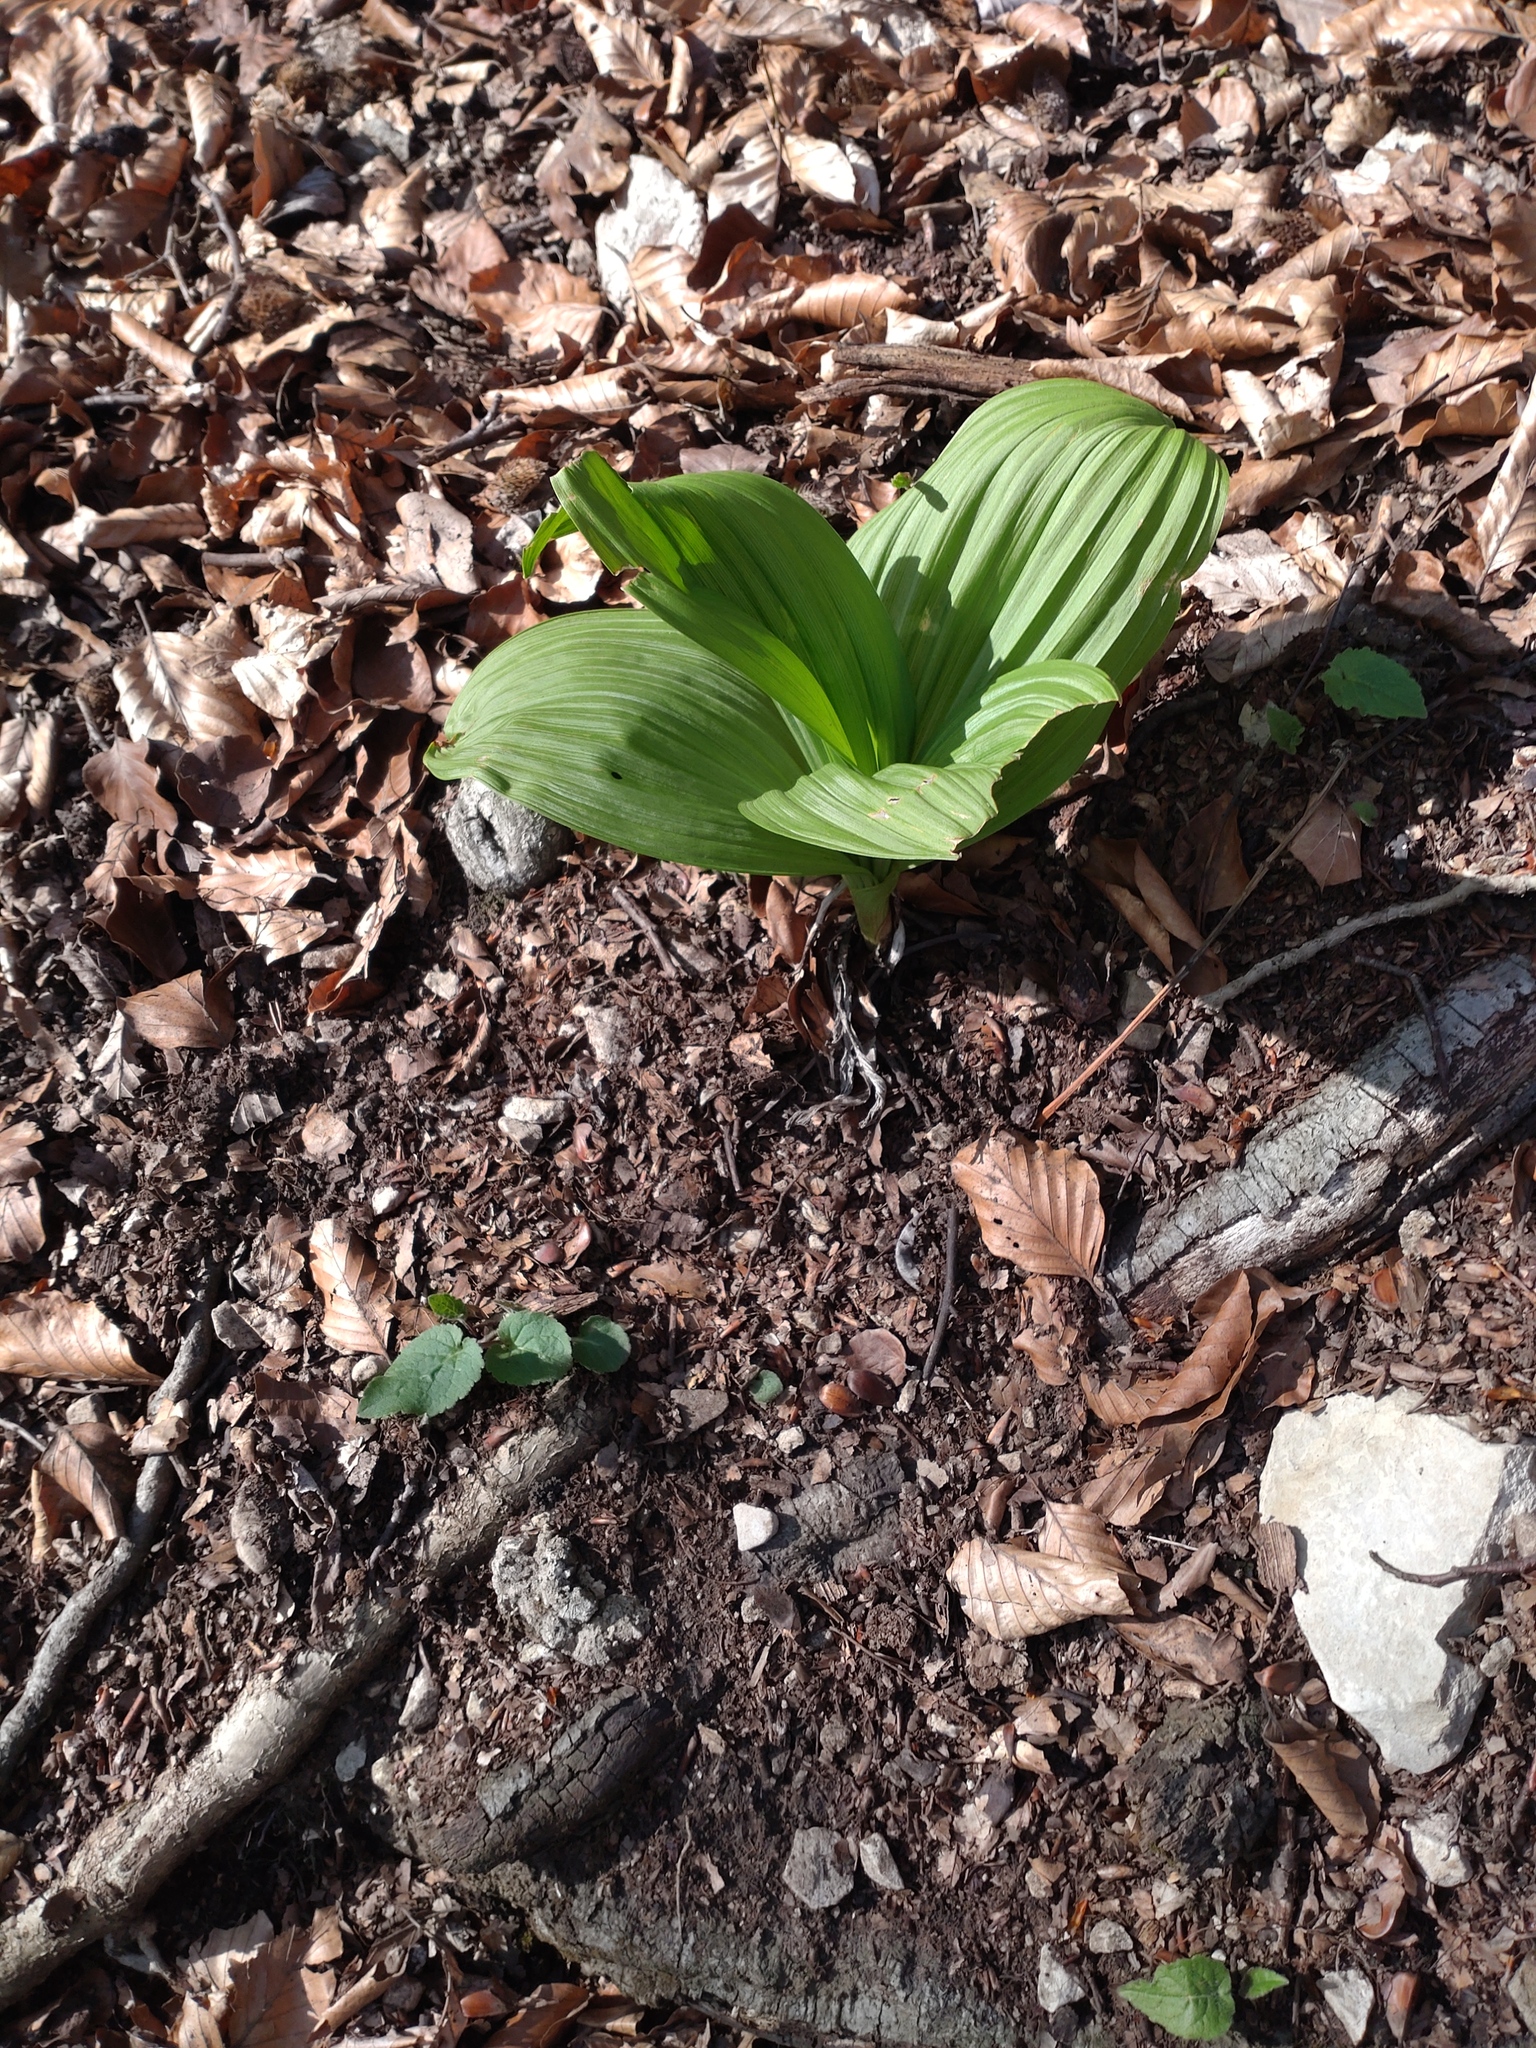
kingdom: Plantae
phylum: Tracheophyta
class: Liliopsida
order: Liliales
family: Melanthiaceae
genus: Veratrum
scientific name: Veratrum nigrum
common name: Black veratrum
